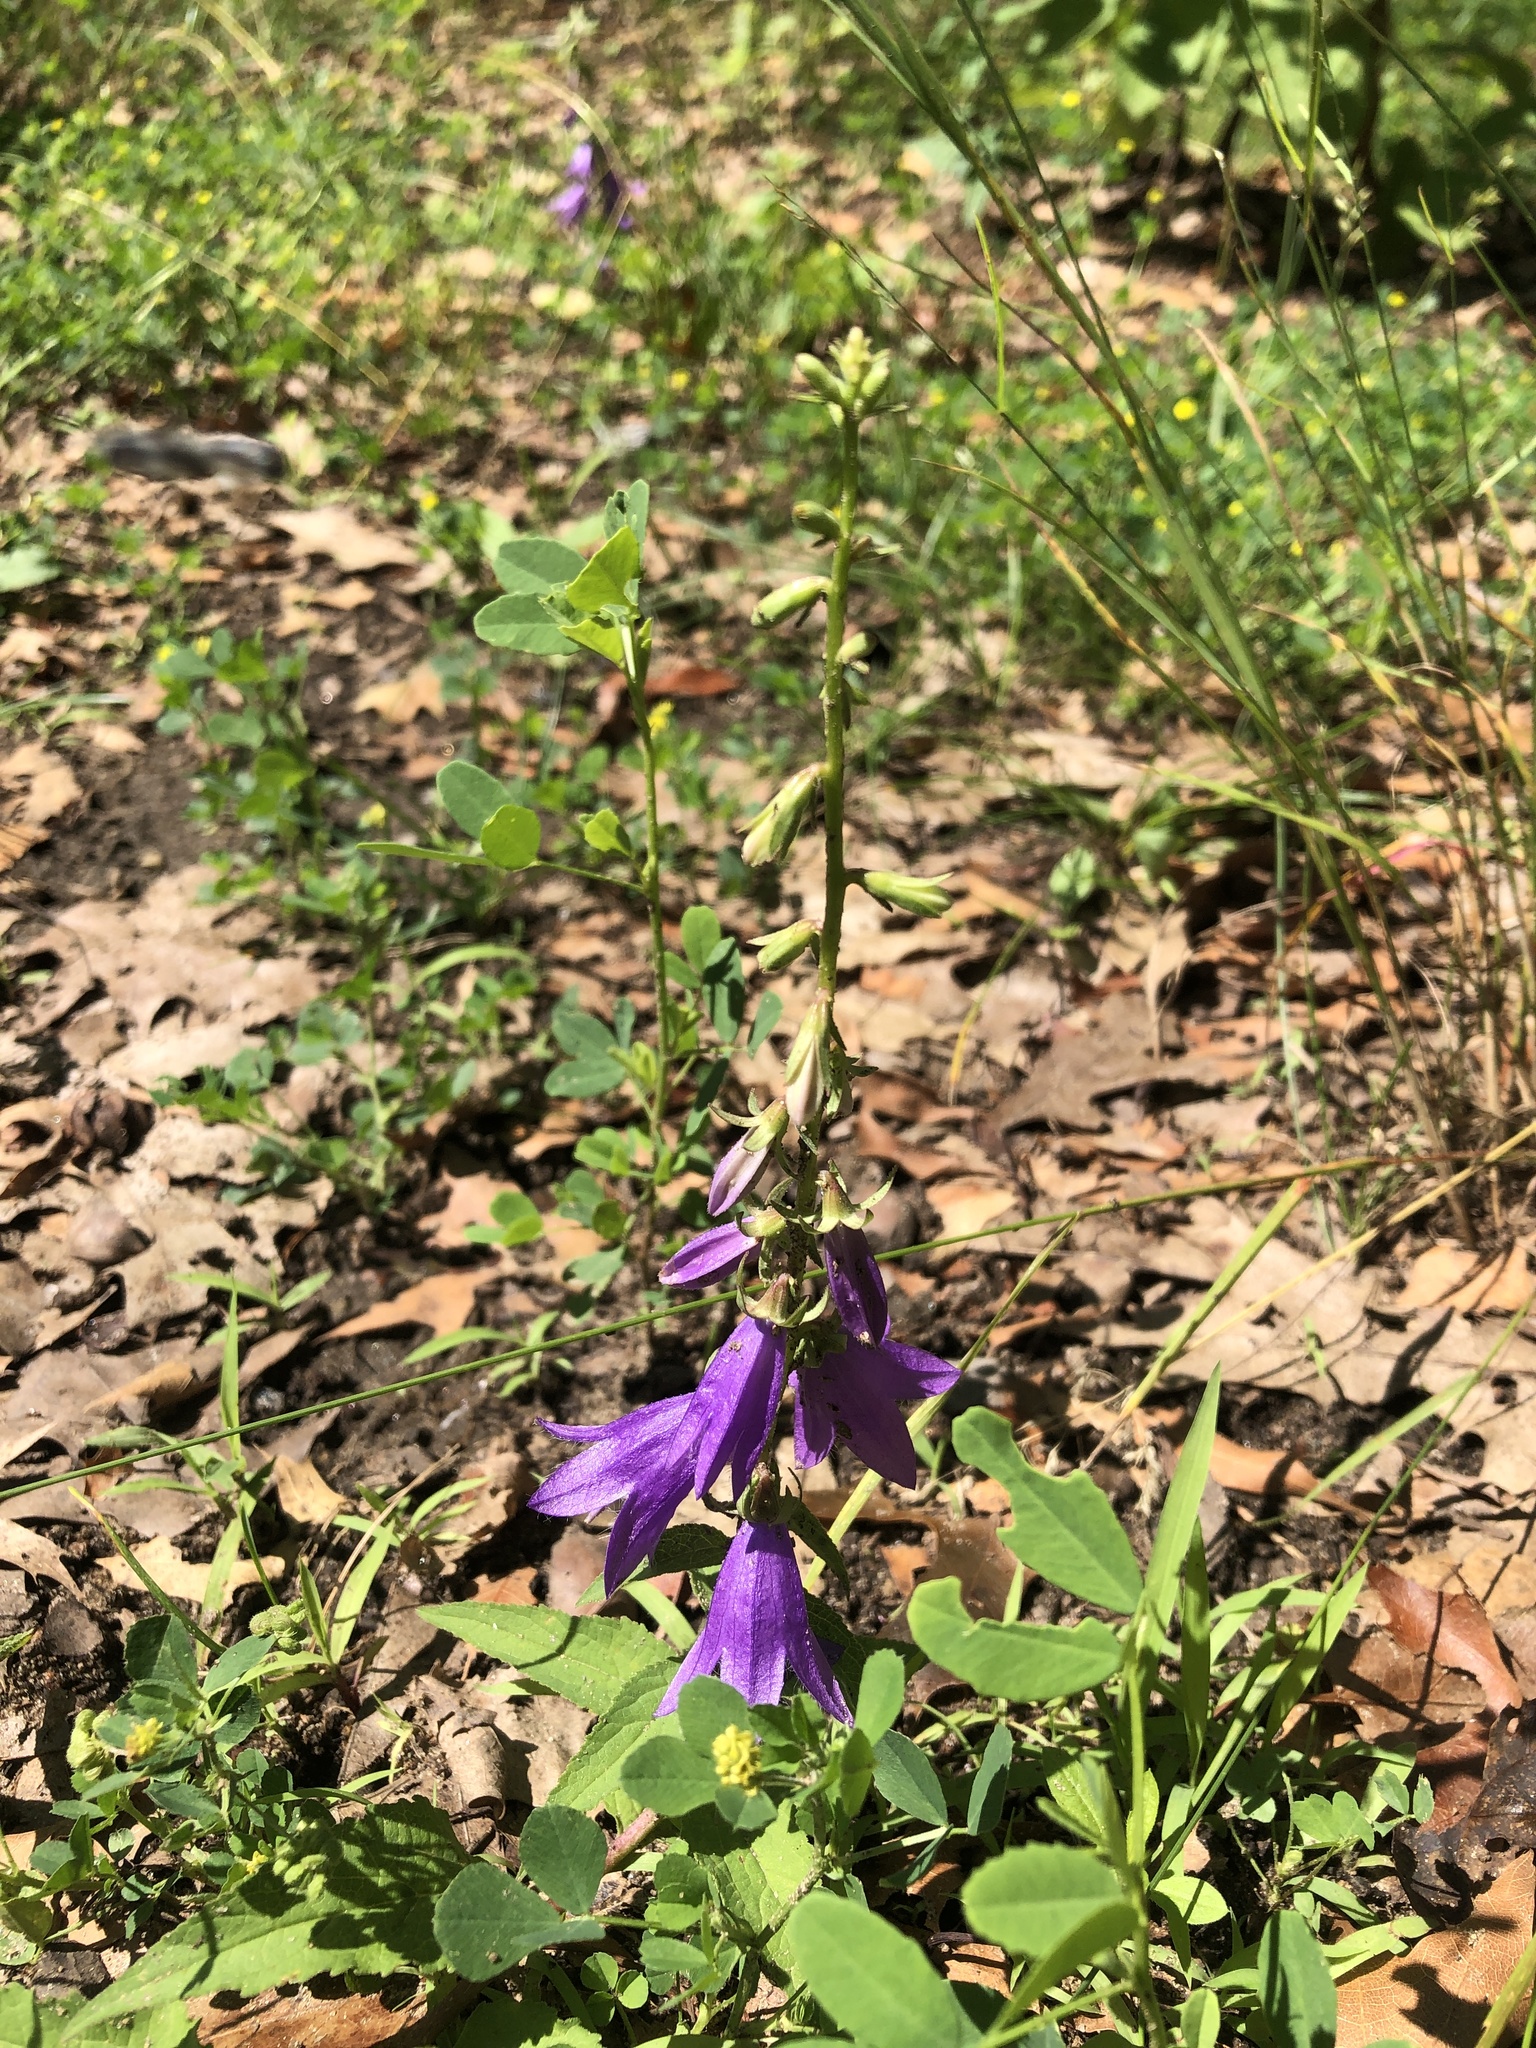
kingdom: Plantae
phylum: Tracheophyta
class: Magnoliopsida
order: Asterales
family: Campanulaceae
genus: Campanula
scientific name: Campanula rapunculoides
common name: Creeping bellflower
